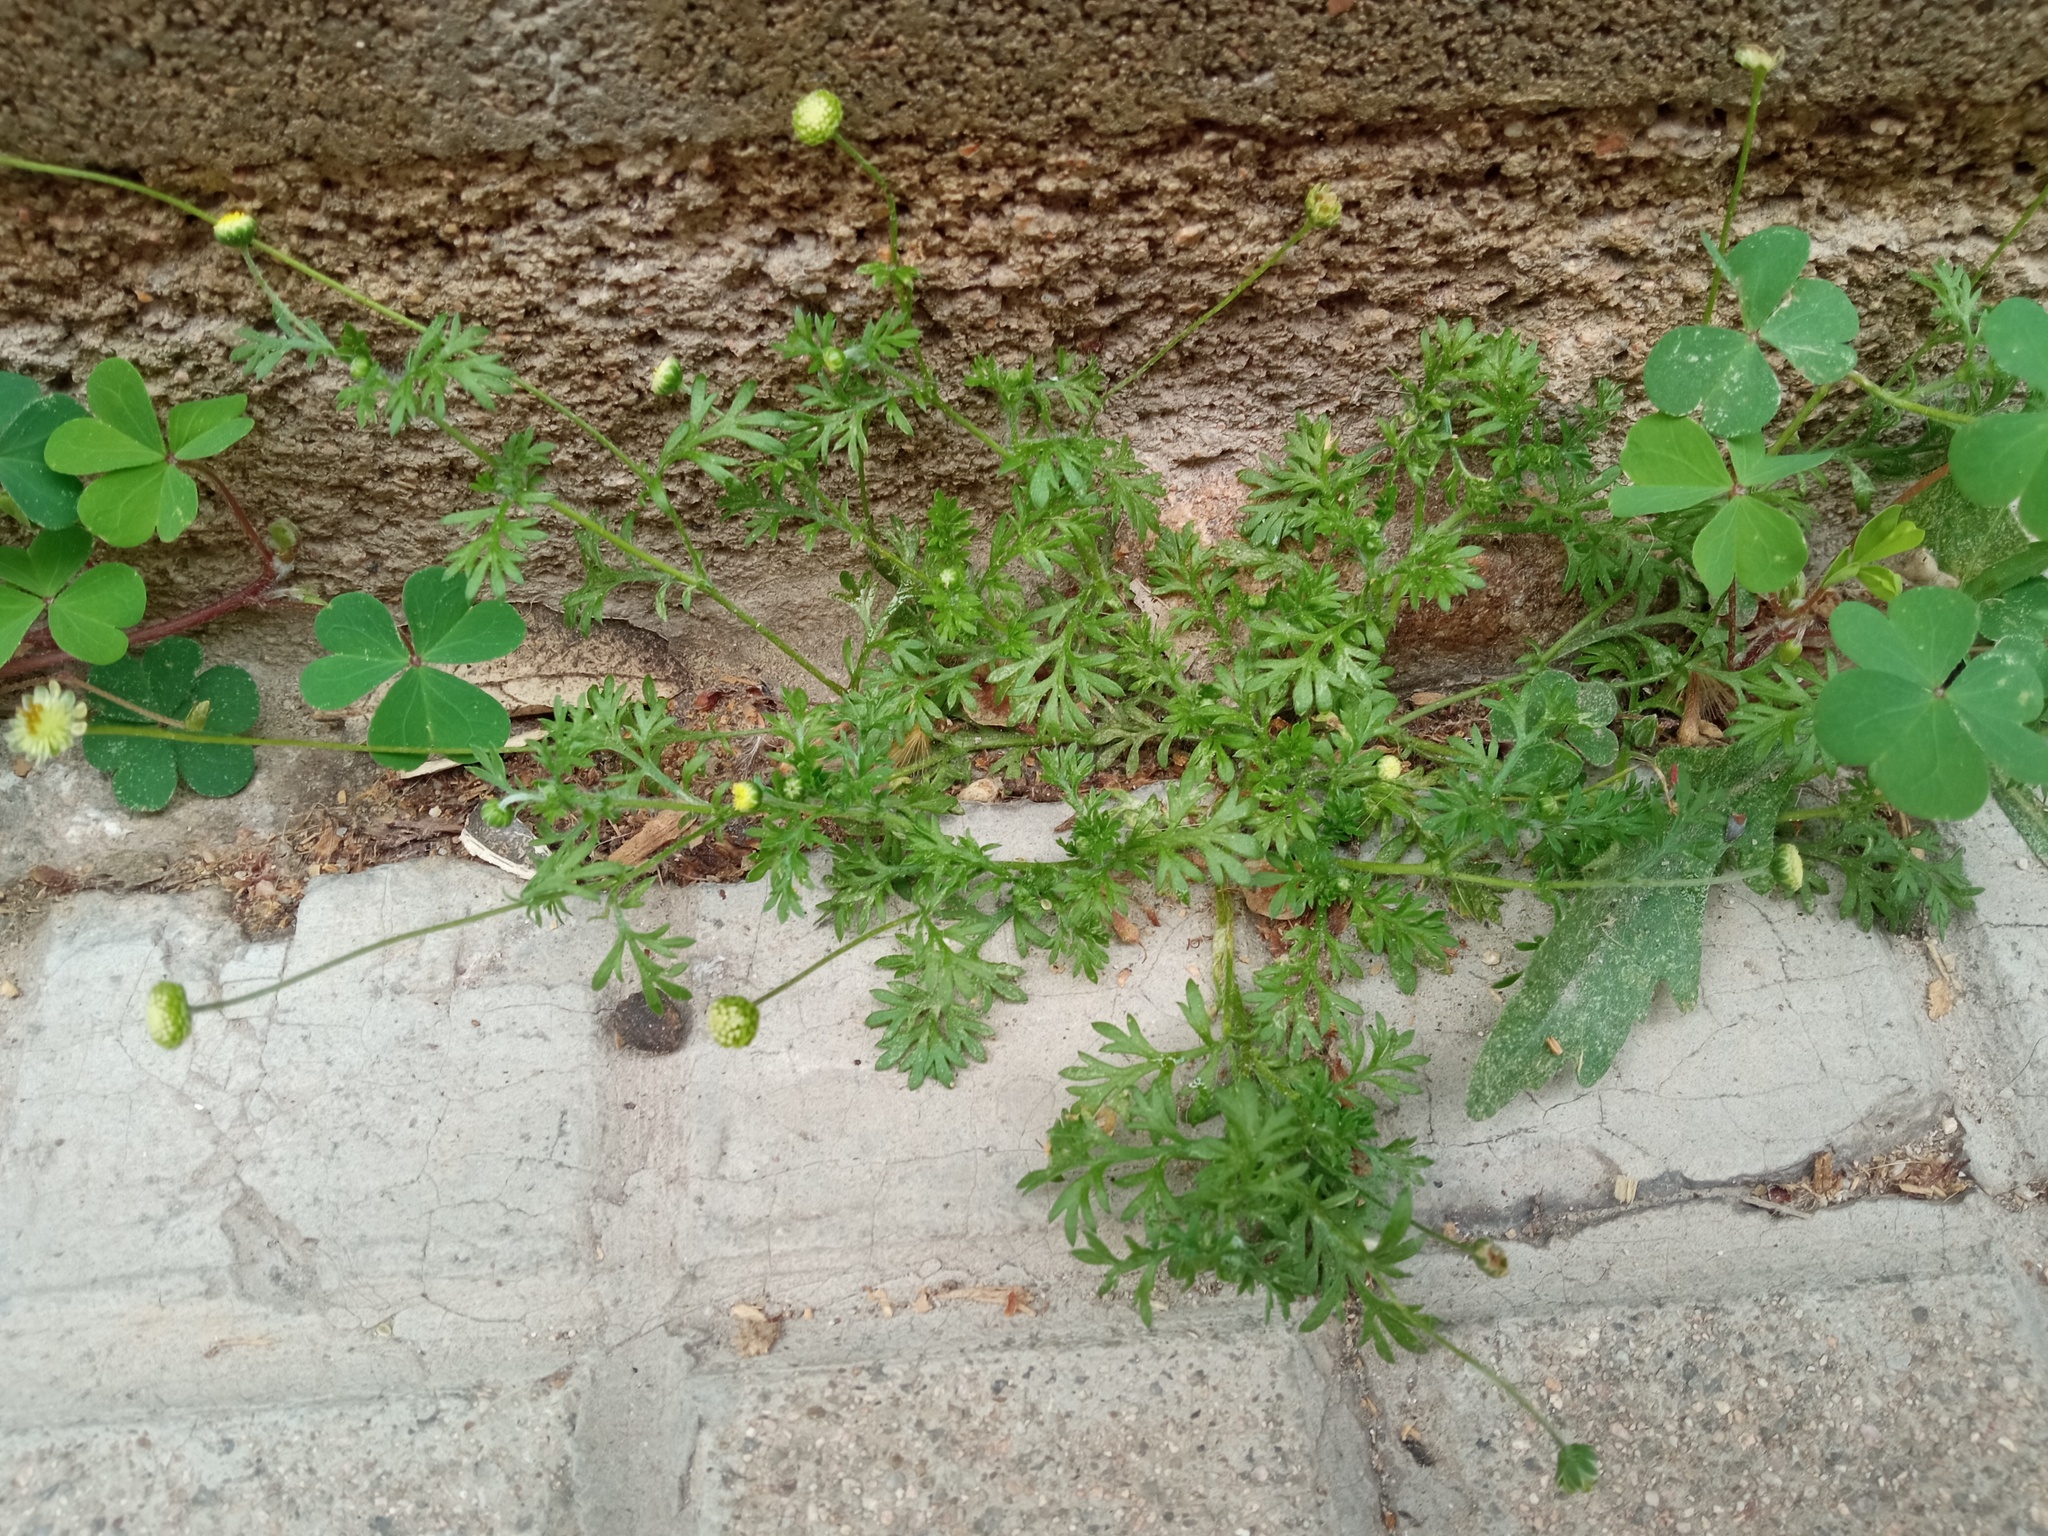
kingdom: Plantae
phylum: Tracheophyta
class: Magnoliopsida
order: Asterales
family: Asteraceae
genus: Cotula
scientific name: Cotula australis
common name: Australian waterbuttons
